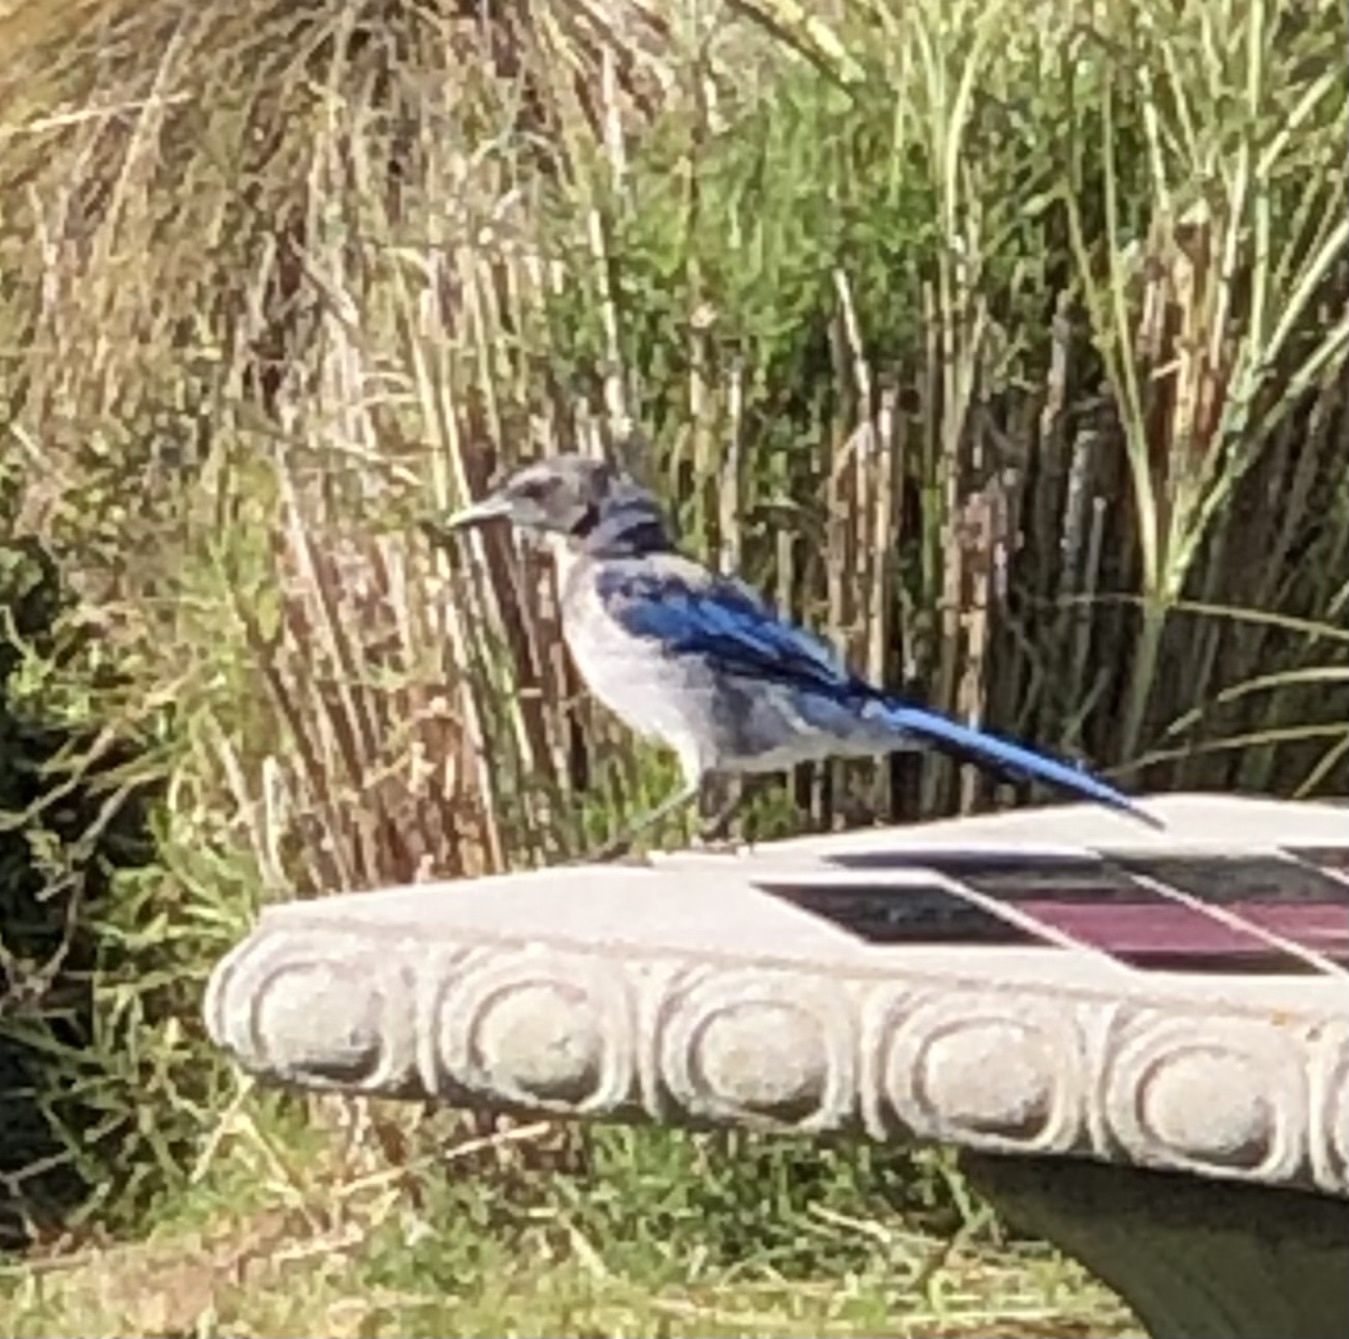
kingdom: Animalia
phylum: Chordata
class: Aves
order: Passeriformes
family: Corvidae
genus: Aphelocoma
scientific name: Aphelocoma californica
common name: California scrub-jay
